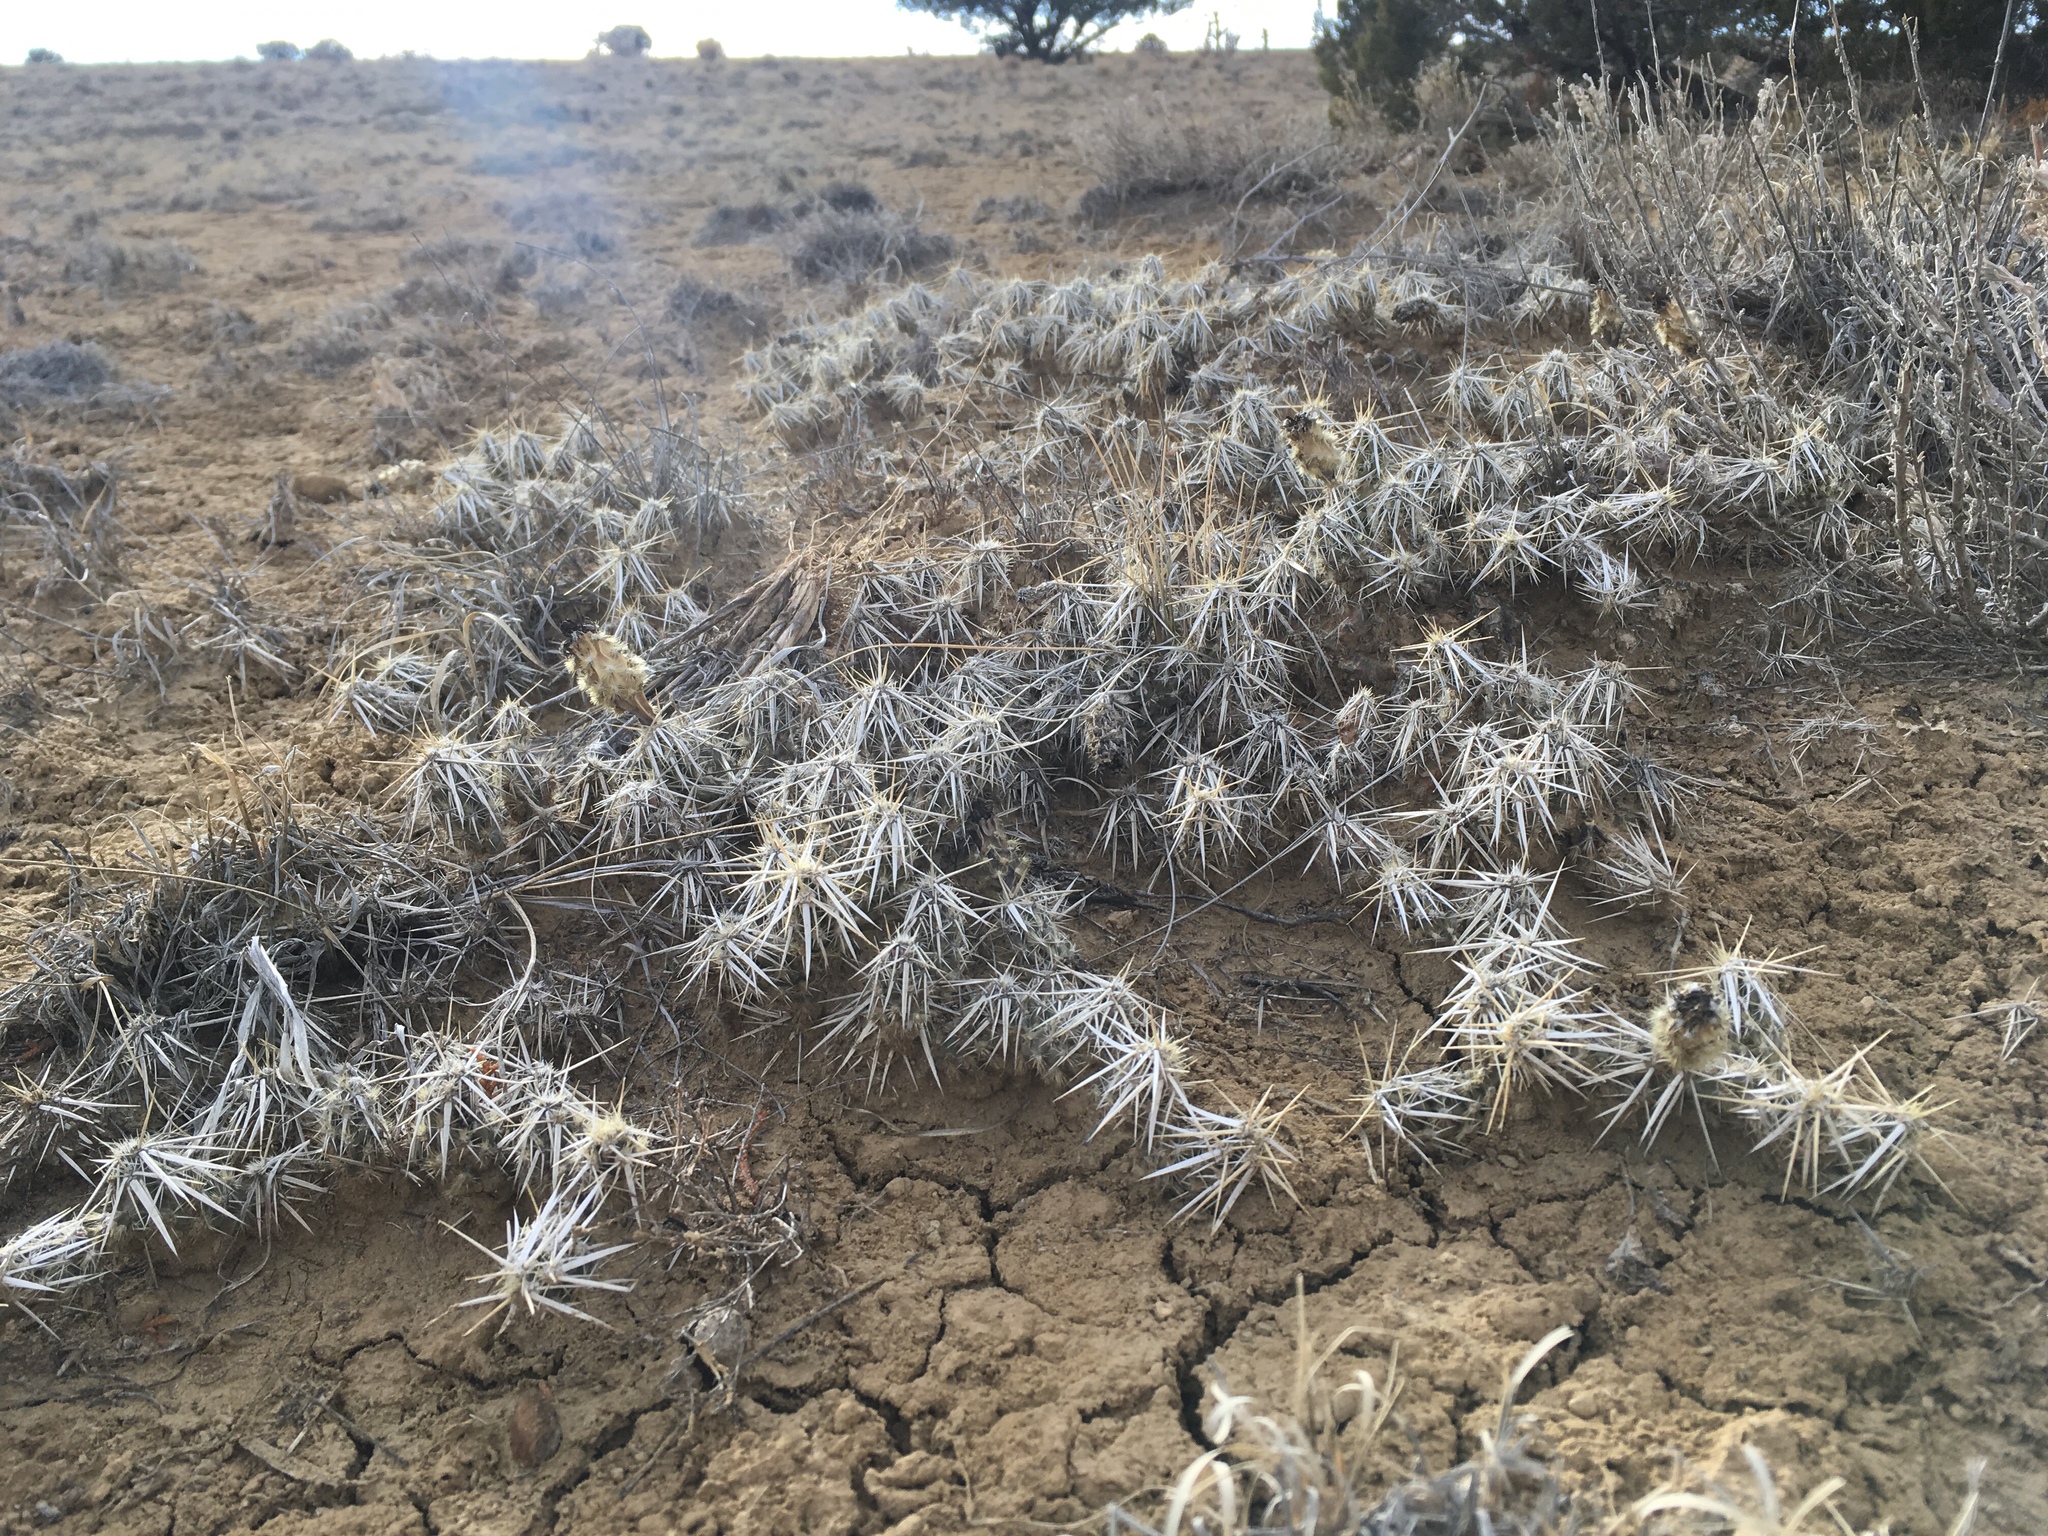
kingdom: Plantae
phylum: Tracheophyta
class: Magnoliopsida
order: Caryophyllales
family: Cactaceae
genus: Grusonia
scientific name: Grusonia clavata
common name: Club cholla
